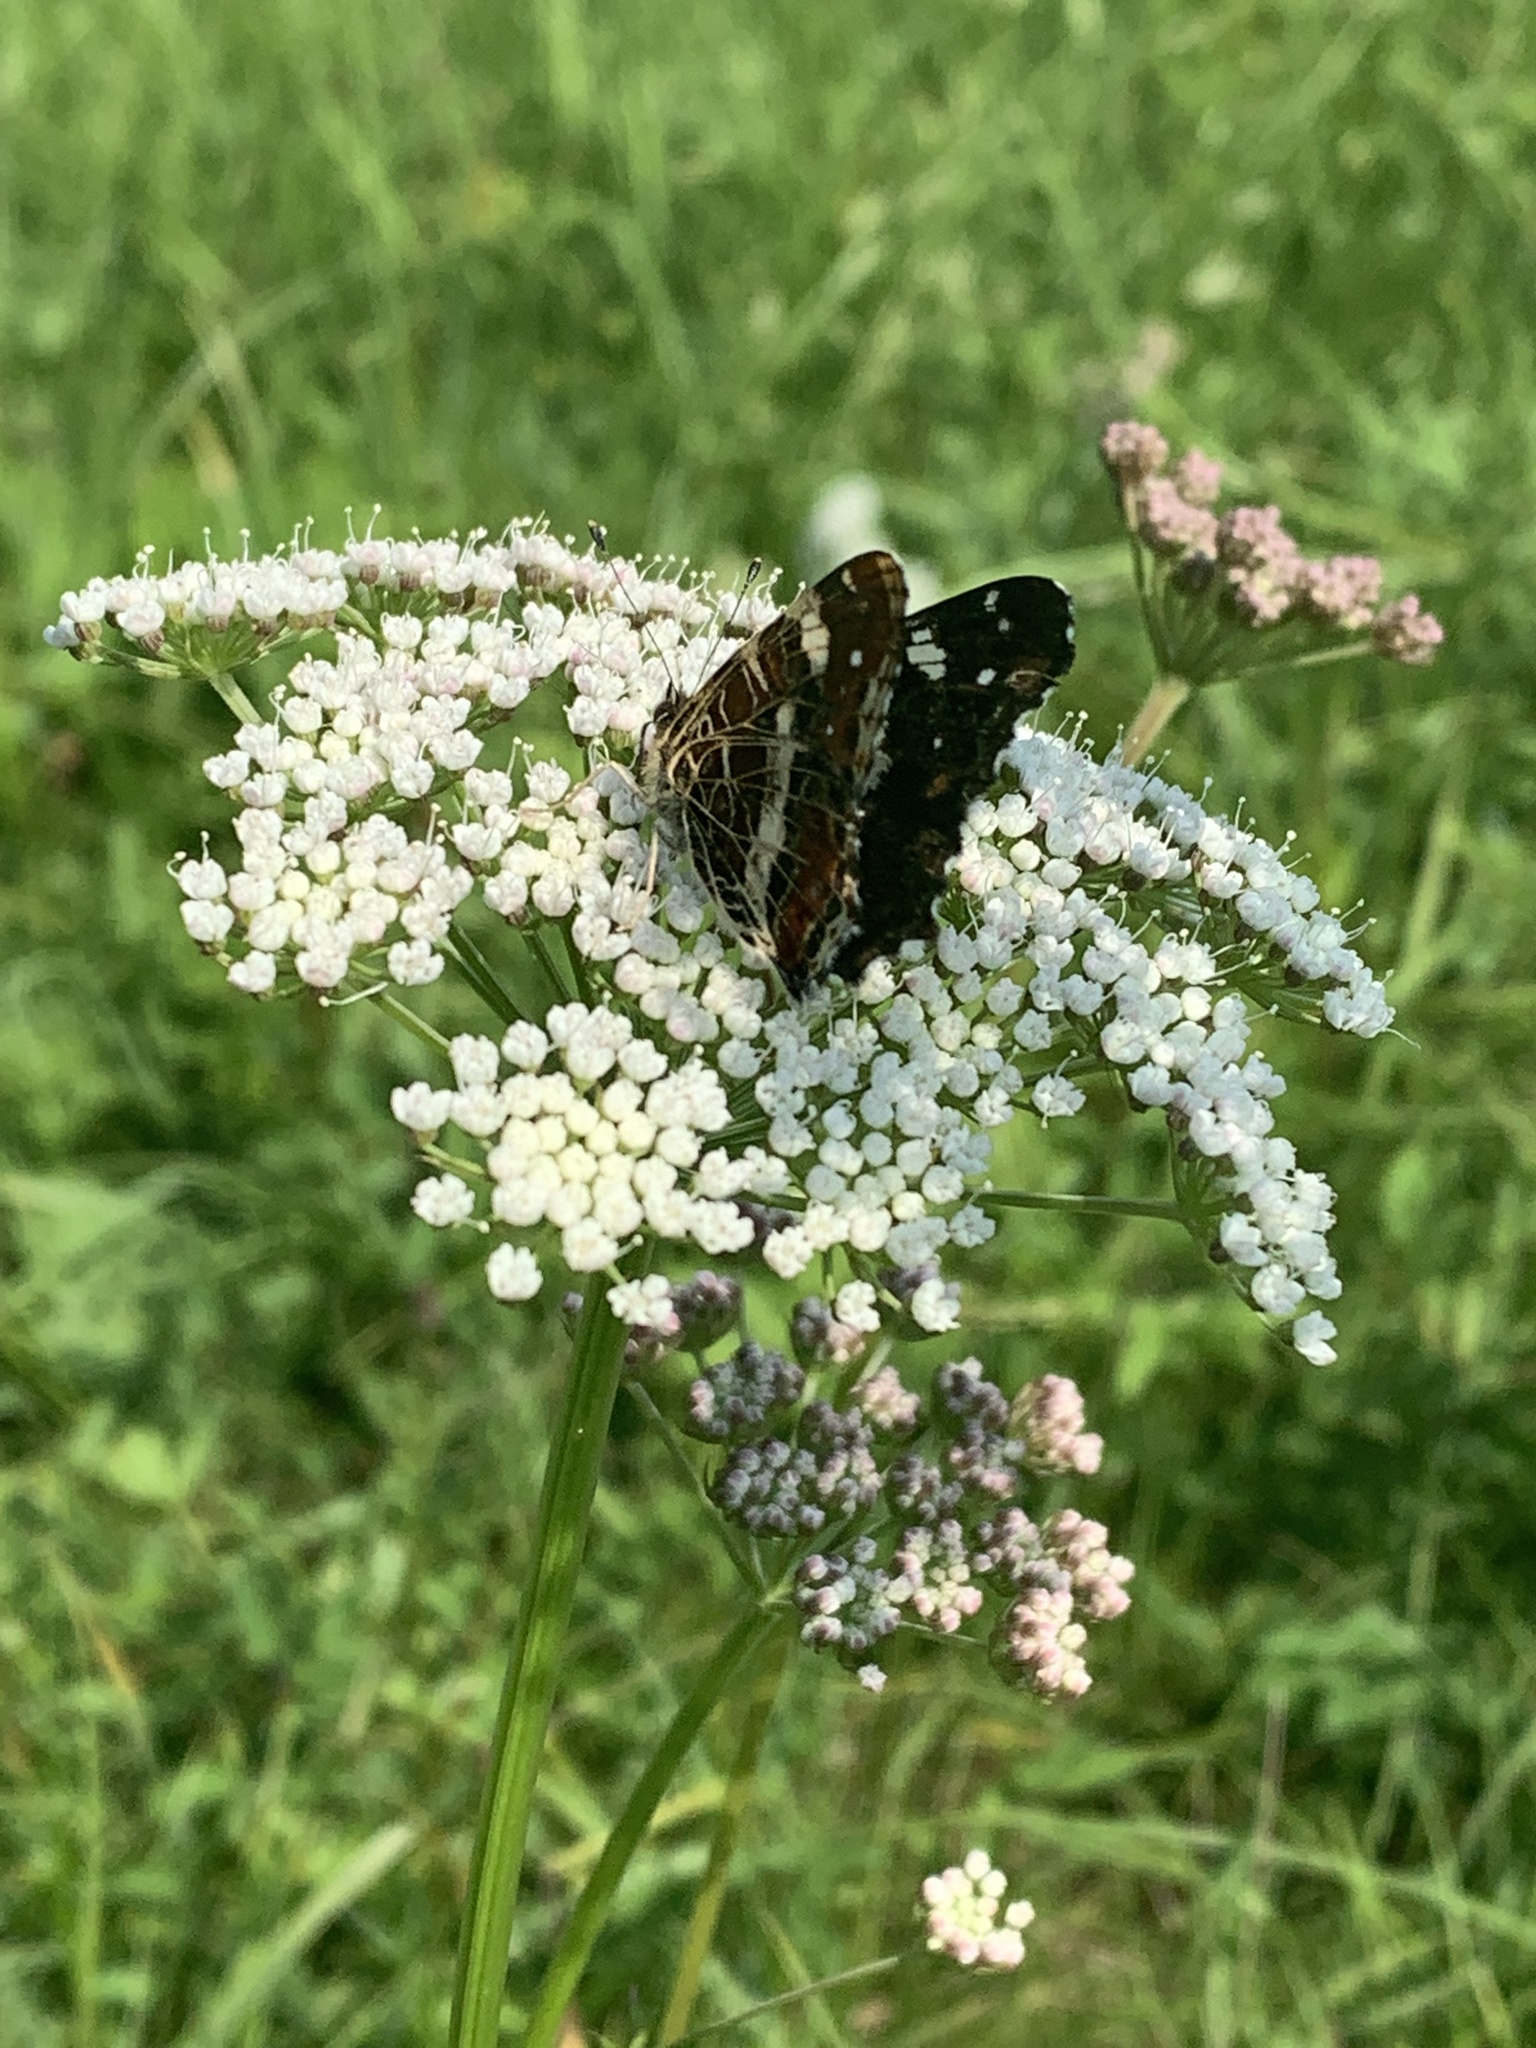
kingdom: Animalia
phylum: Arthropoda
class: Insecta
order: Lepidoptera
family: Nymphalidae
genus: Araschnia
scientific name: Araschnia levana
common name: Map butterfly
